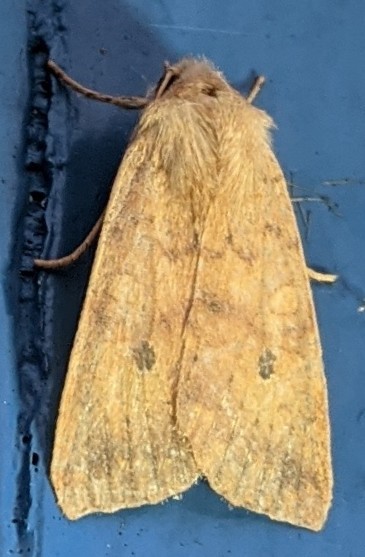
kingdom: Animalia
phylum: Arthropoda
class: Insecta
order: Lepidoptera
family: Noctuidae
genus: Agrochola
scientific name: Agrochola bicolorago
